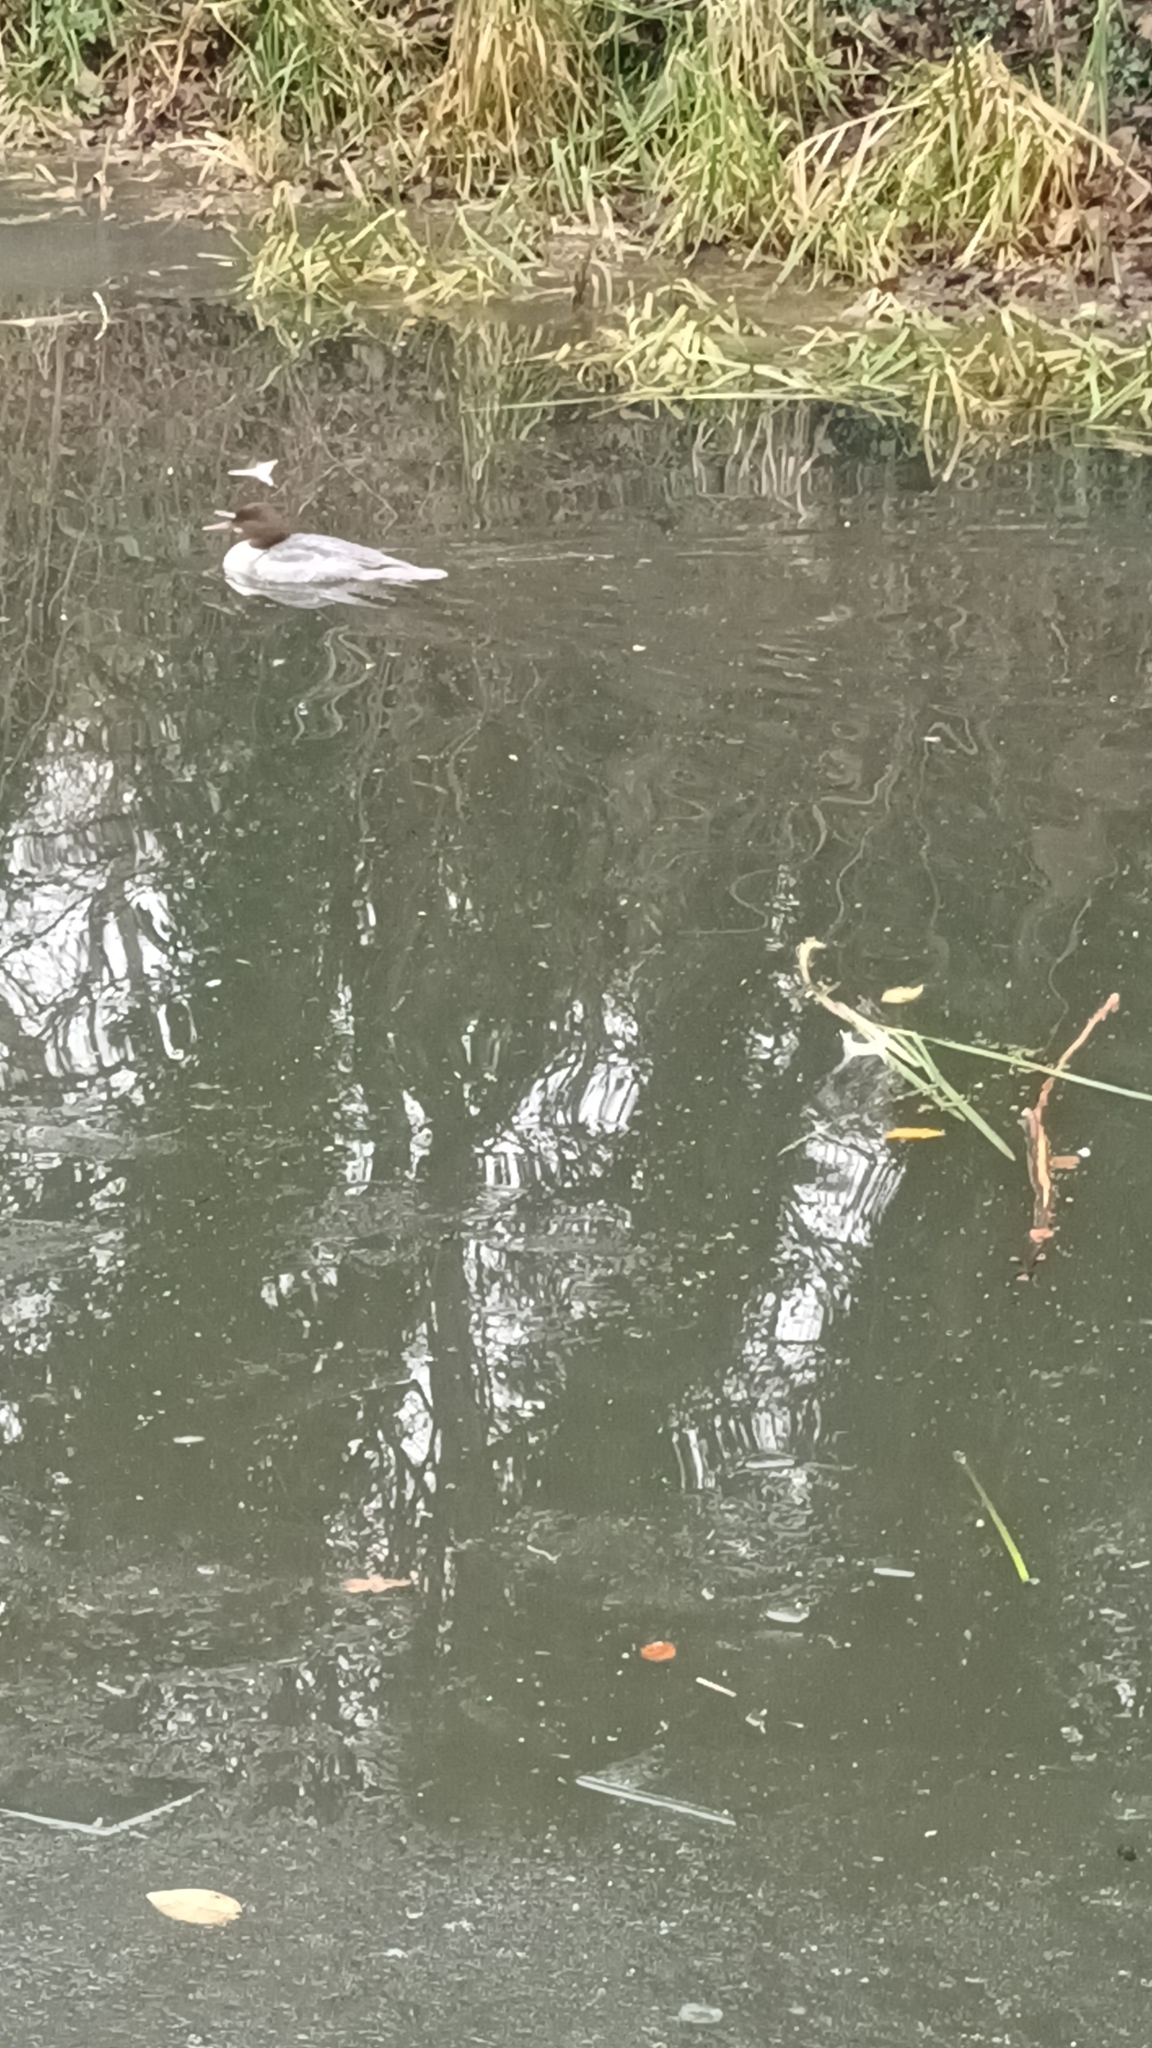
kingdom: Animalia
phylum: Chordata
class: Aves
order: Anseriformes
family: Anatidae
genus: Mergus
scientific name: Mergus merganser
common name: Common merganser
